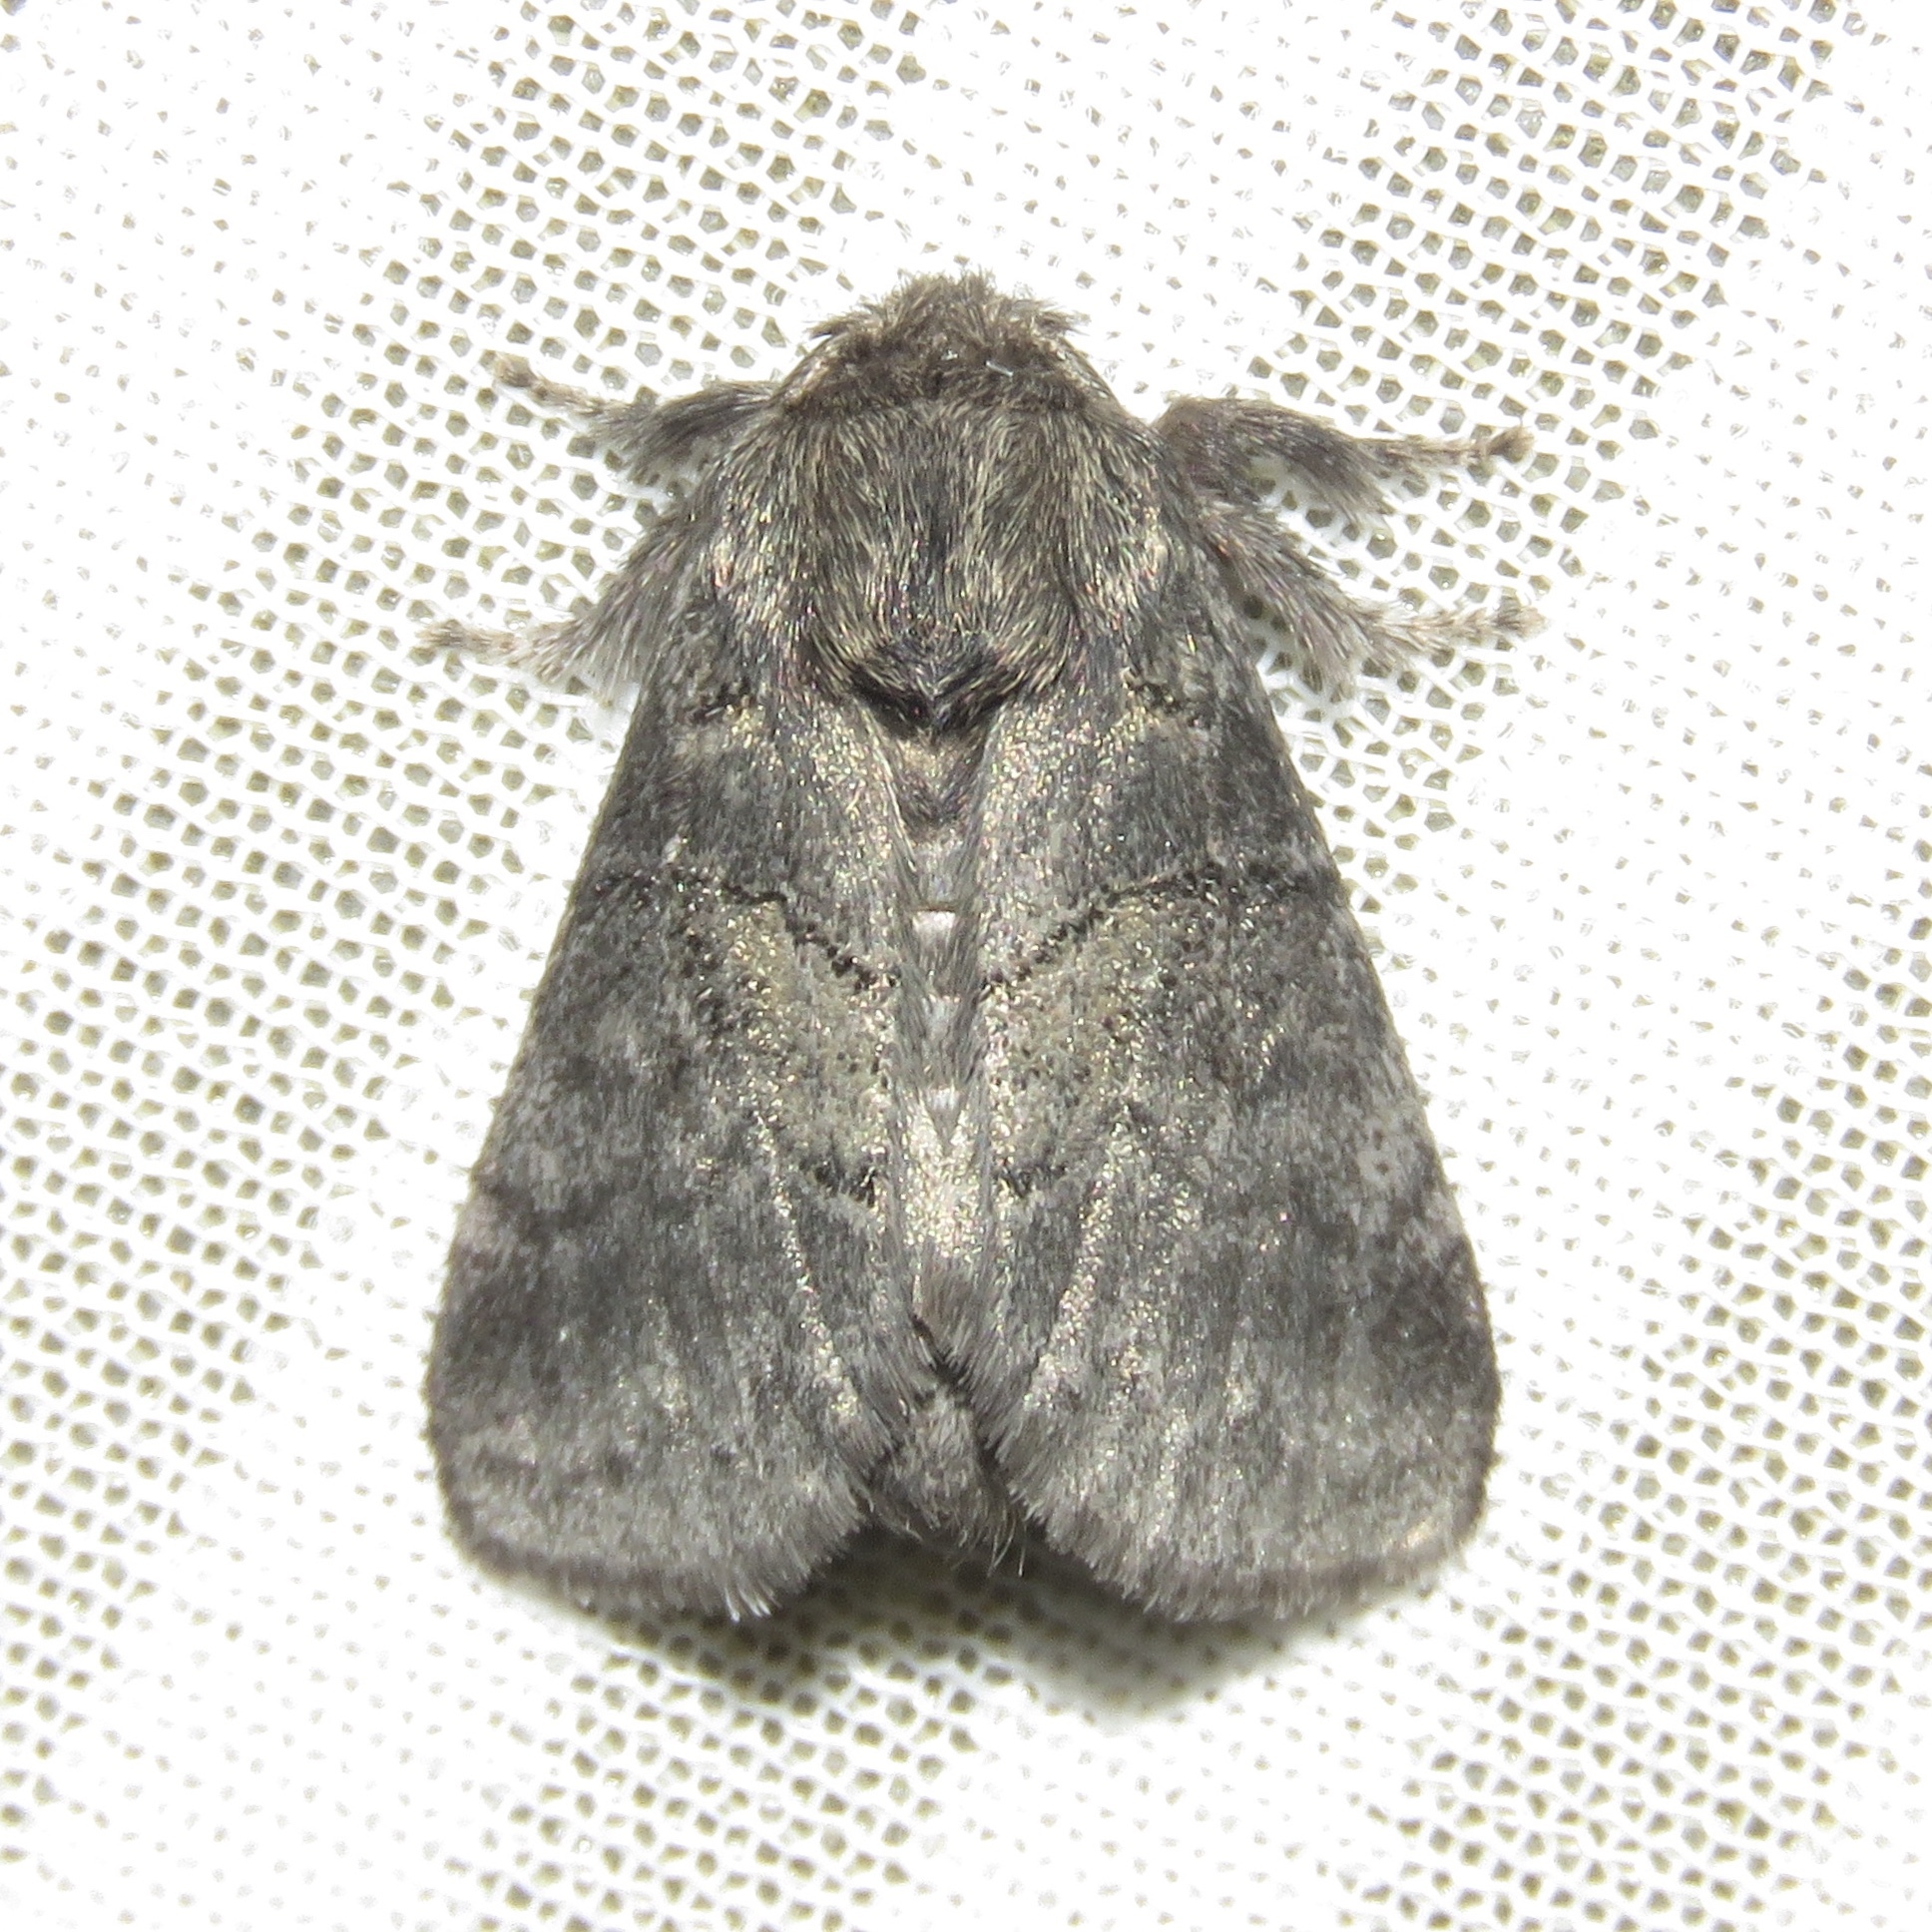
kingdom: Animalia
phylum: Arthropoda
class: Insecta
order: Lepidoptera
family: Notodontidae
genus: Gluphisia
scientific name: Gluphisia septentrionis
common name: Common gluphisia
